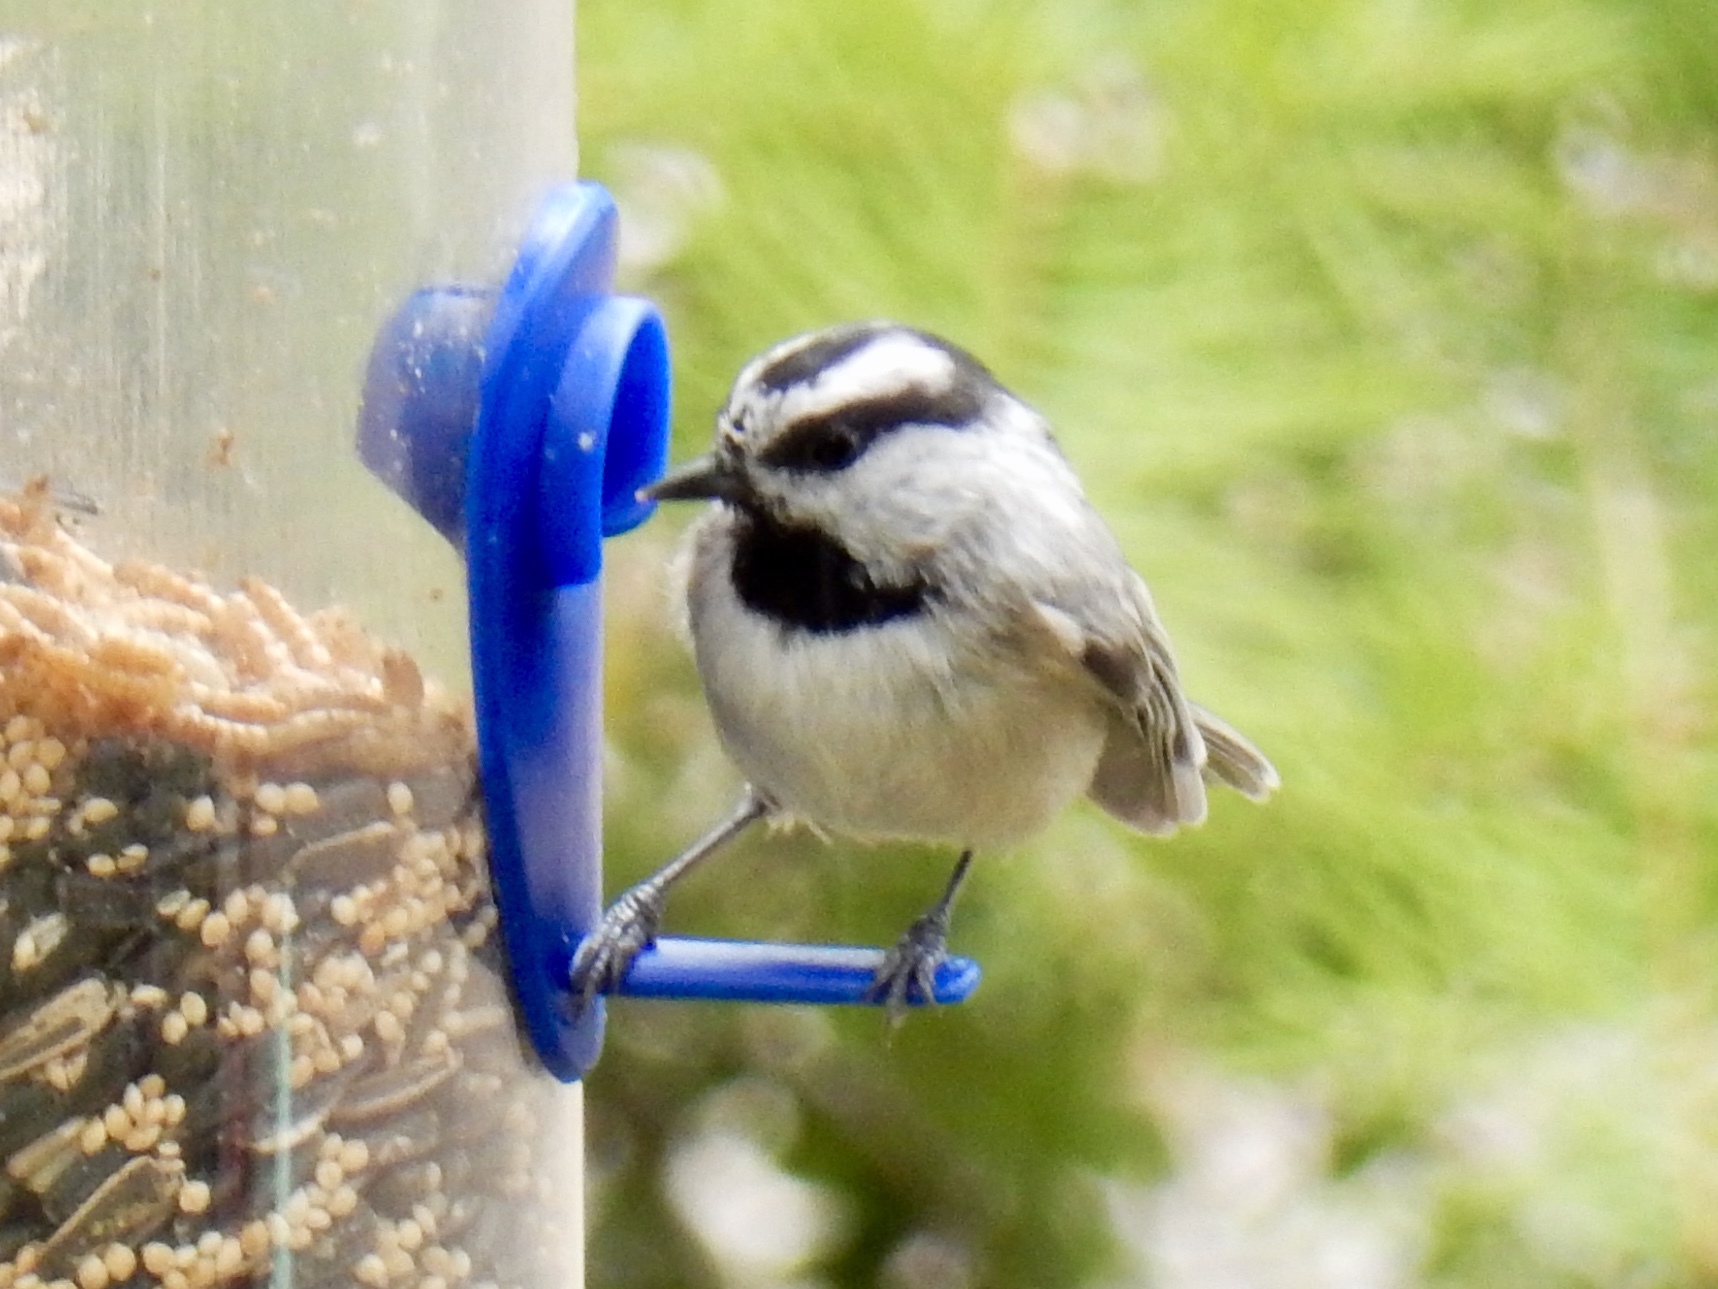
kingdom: Animalia
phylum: Chordata
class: Aves
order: Passeriformes
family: Paridae
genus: Poecile
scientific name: Poecile gambeli
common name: Mountain chickadee
